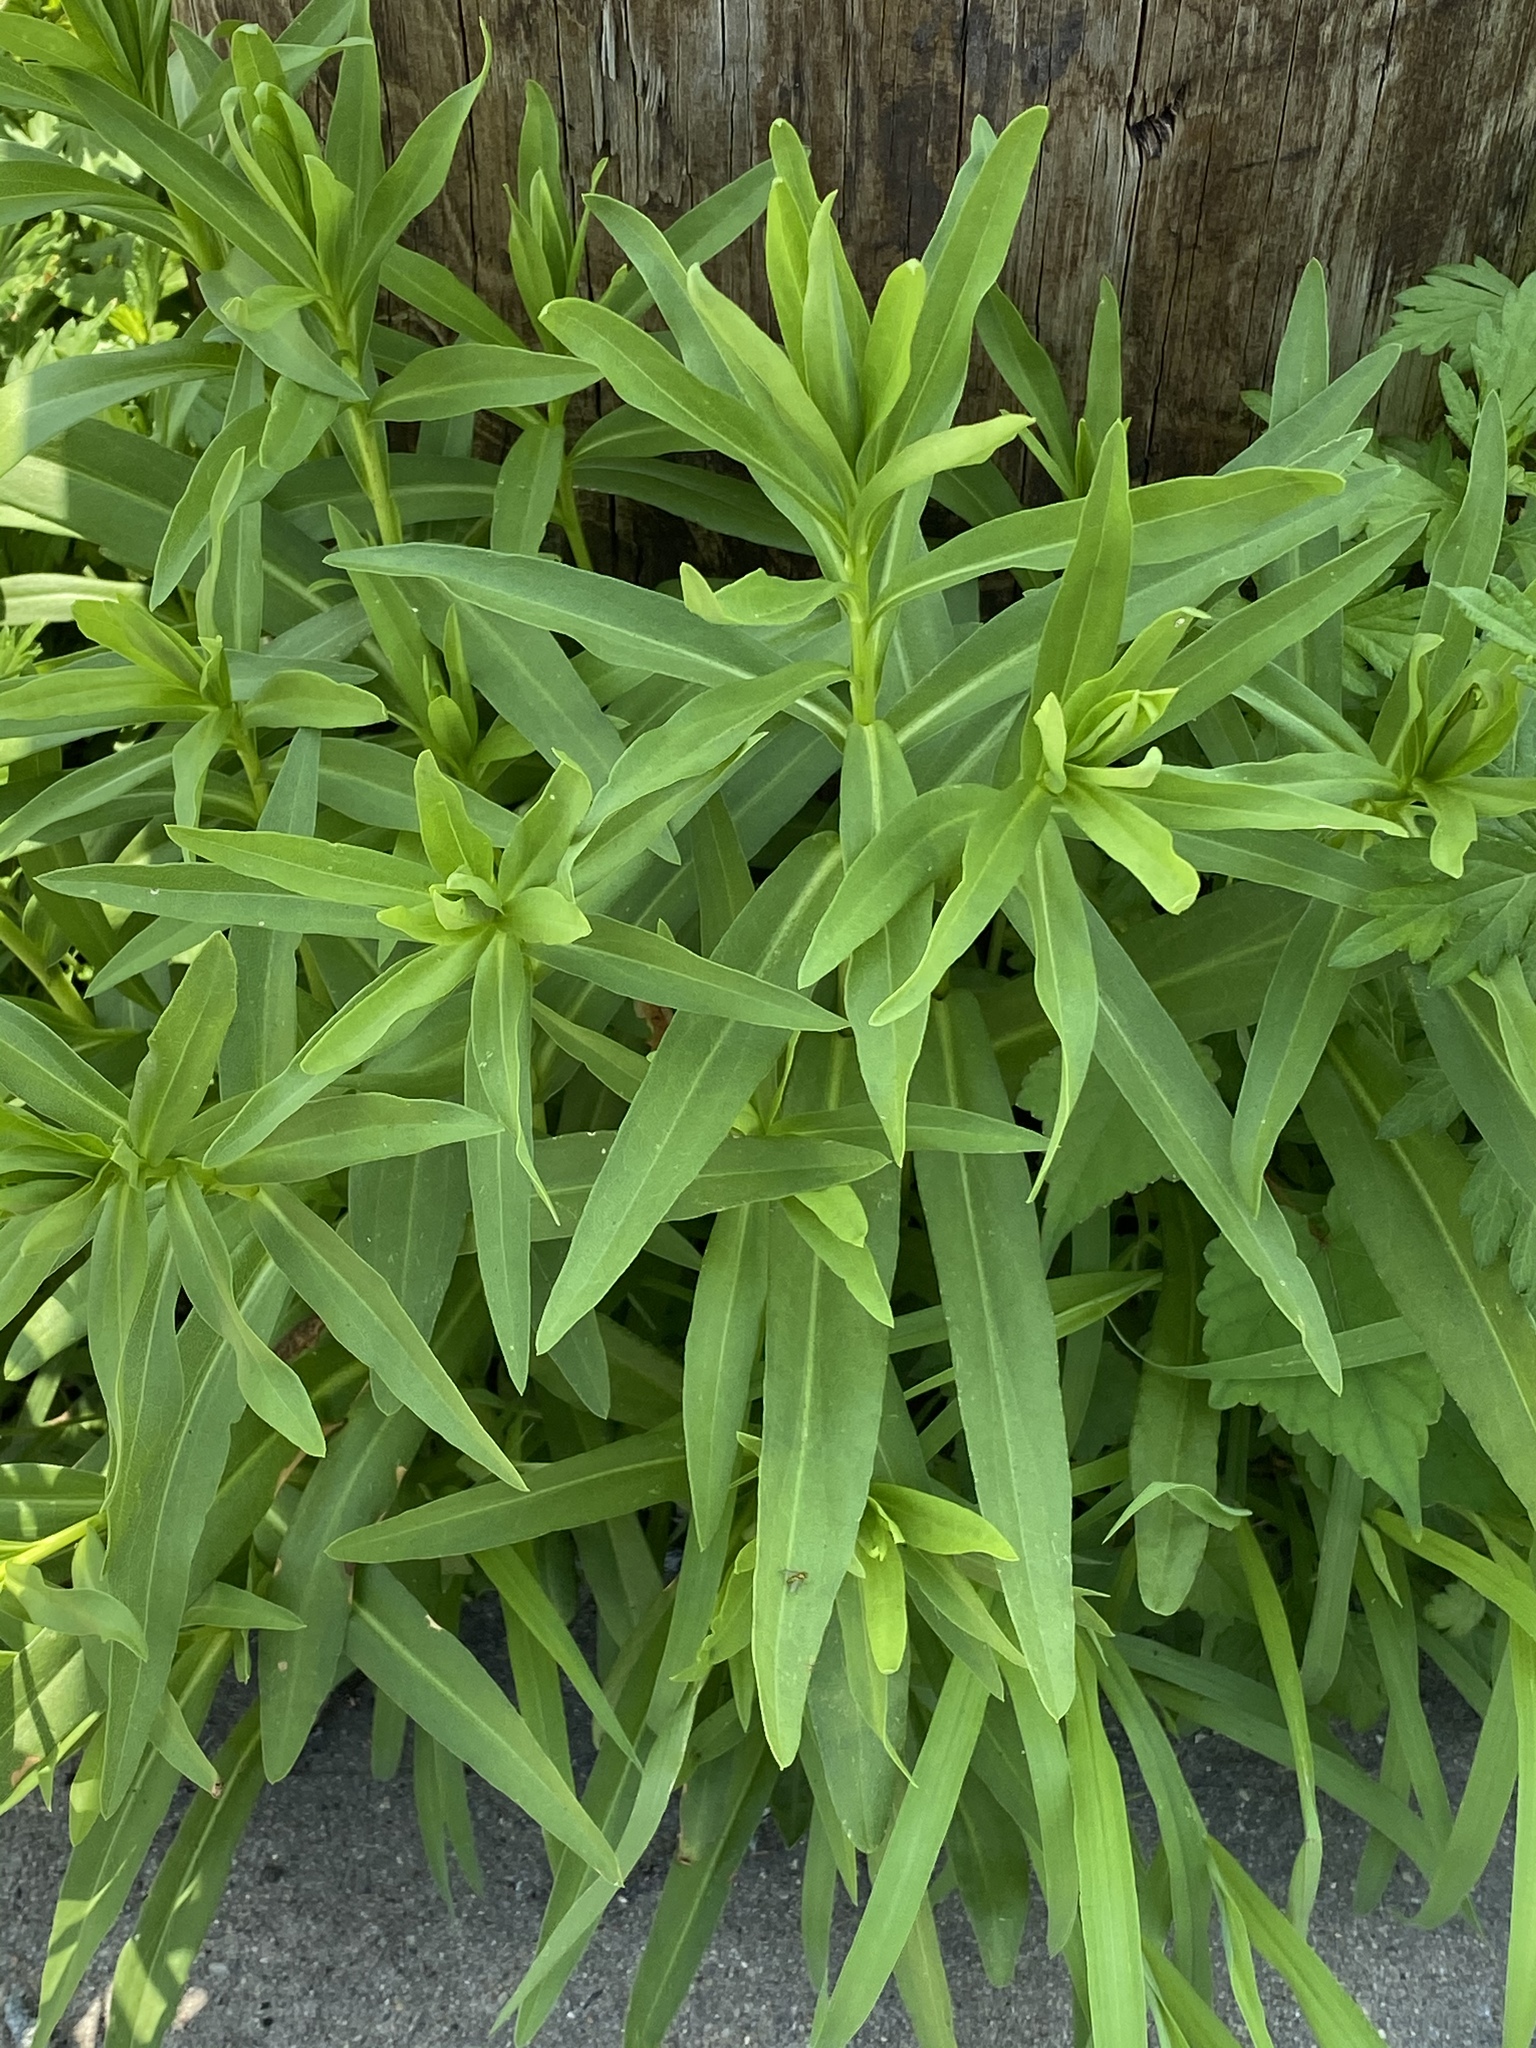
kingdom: Plantae
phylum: Tracheophyta
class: Magnoliopsida
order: Asterales
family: Asteraceae
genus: Solidago
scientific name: Solidago sempervirens
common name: Salt-marsh goldenrod
